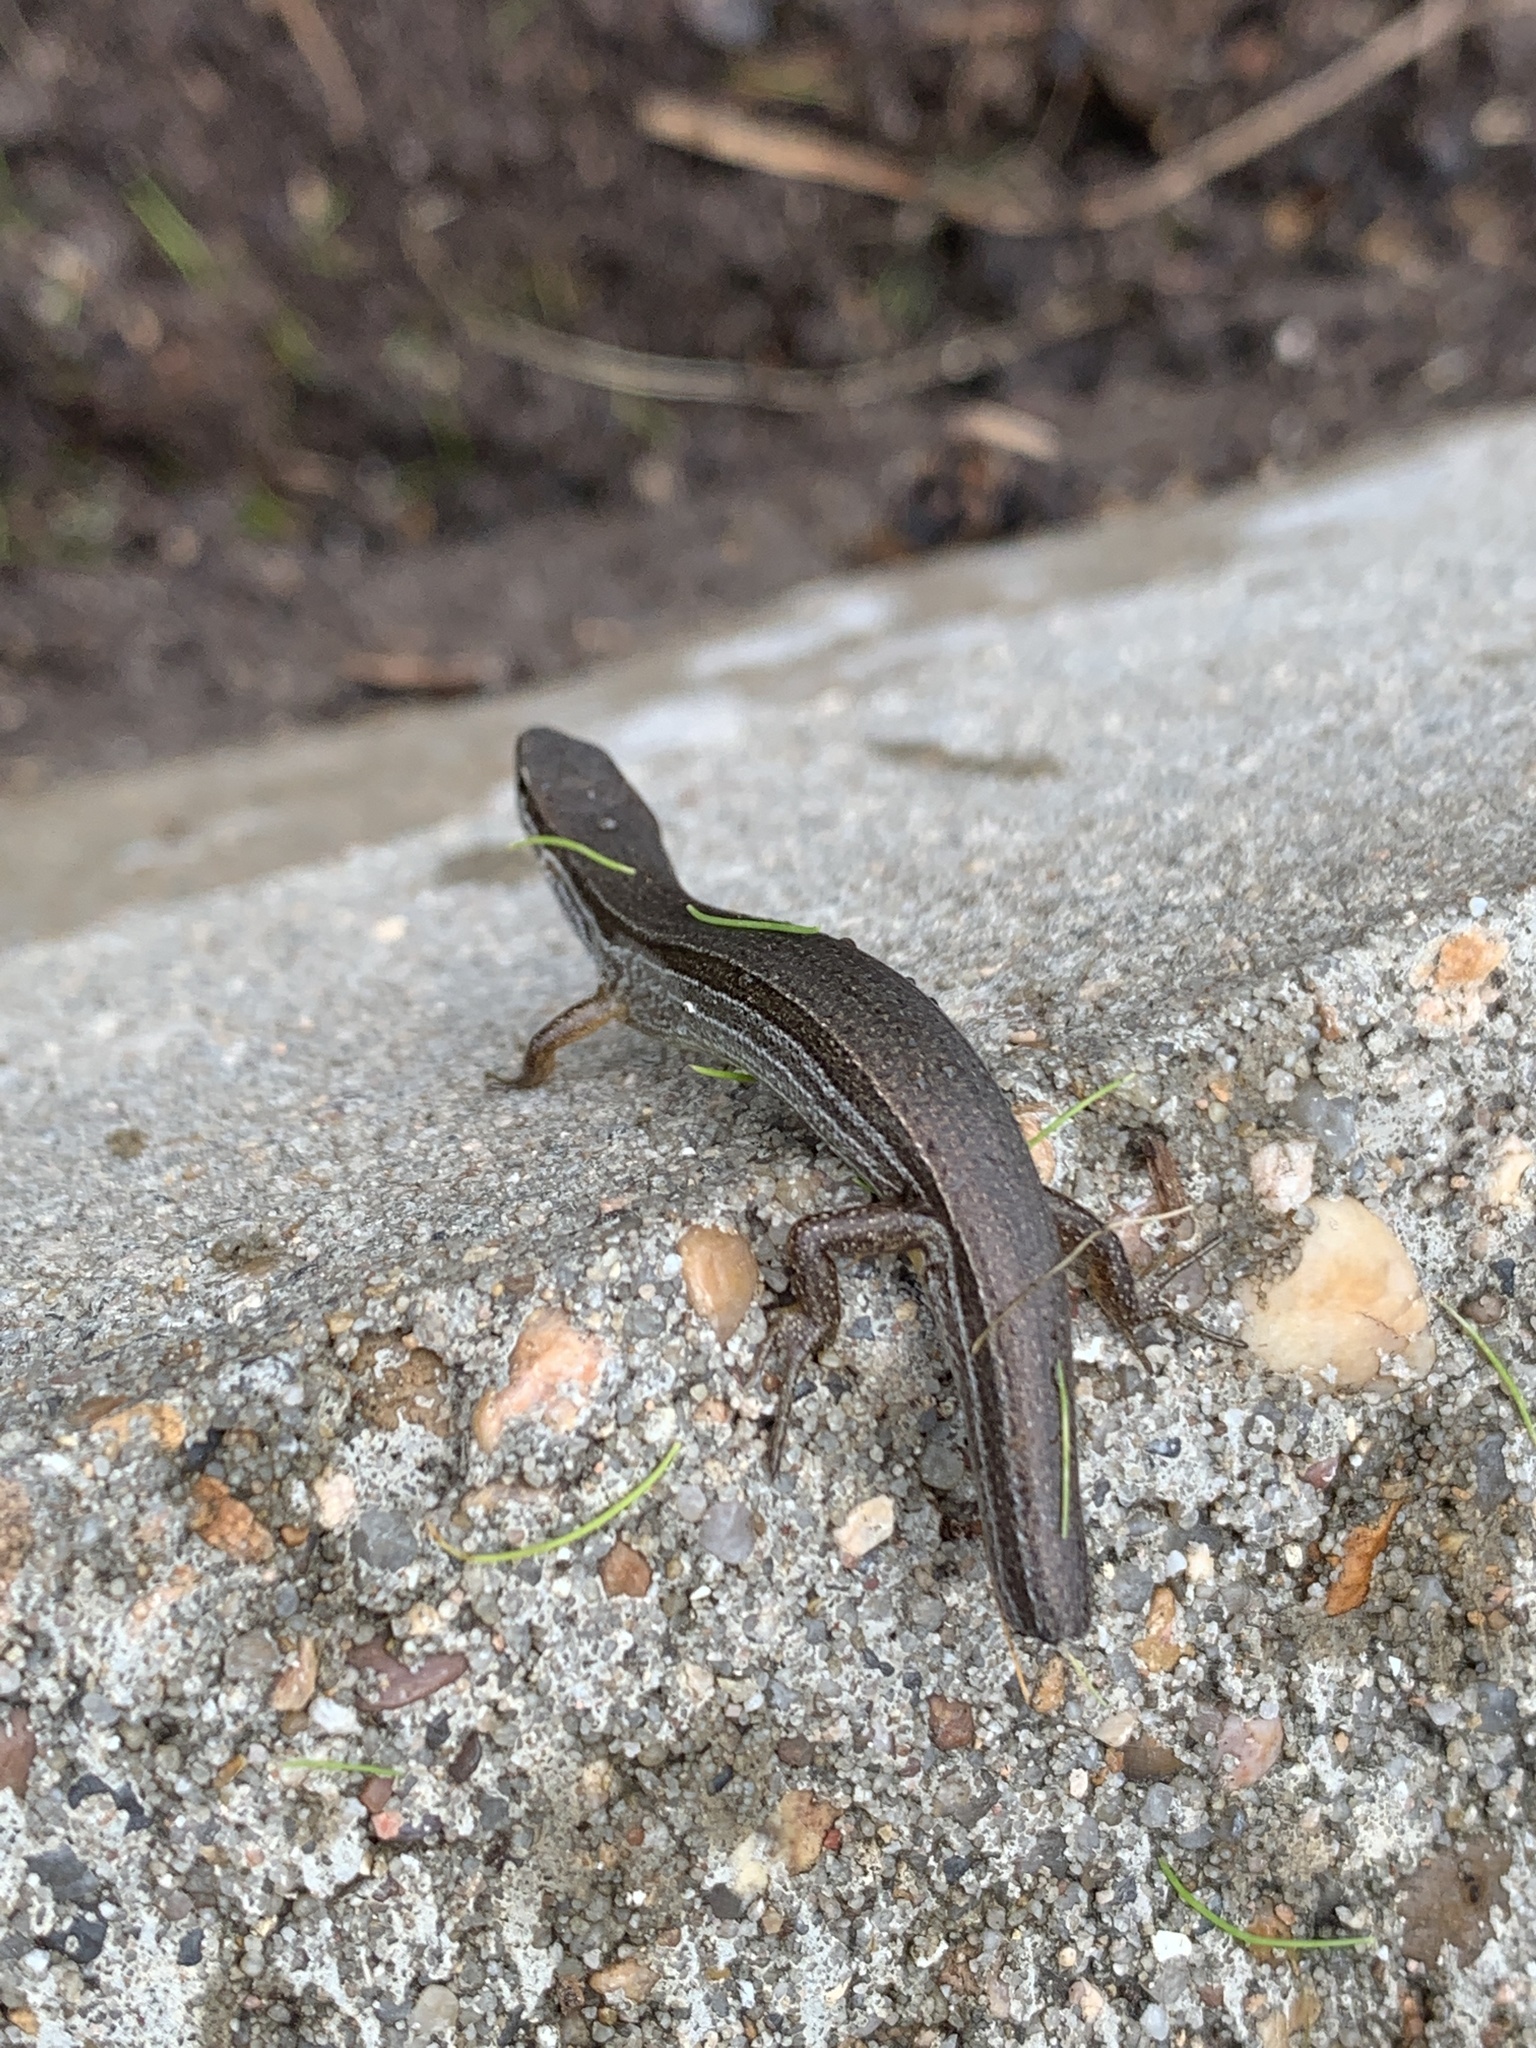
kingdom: Animalia
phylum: Chordata
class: Squamata
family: Scincidae
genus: Scincella
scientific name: Scincella lateralis
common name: Ground skink
